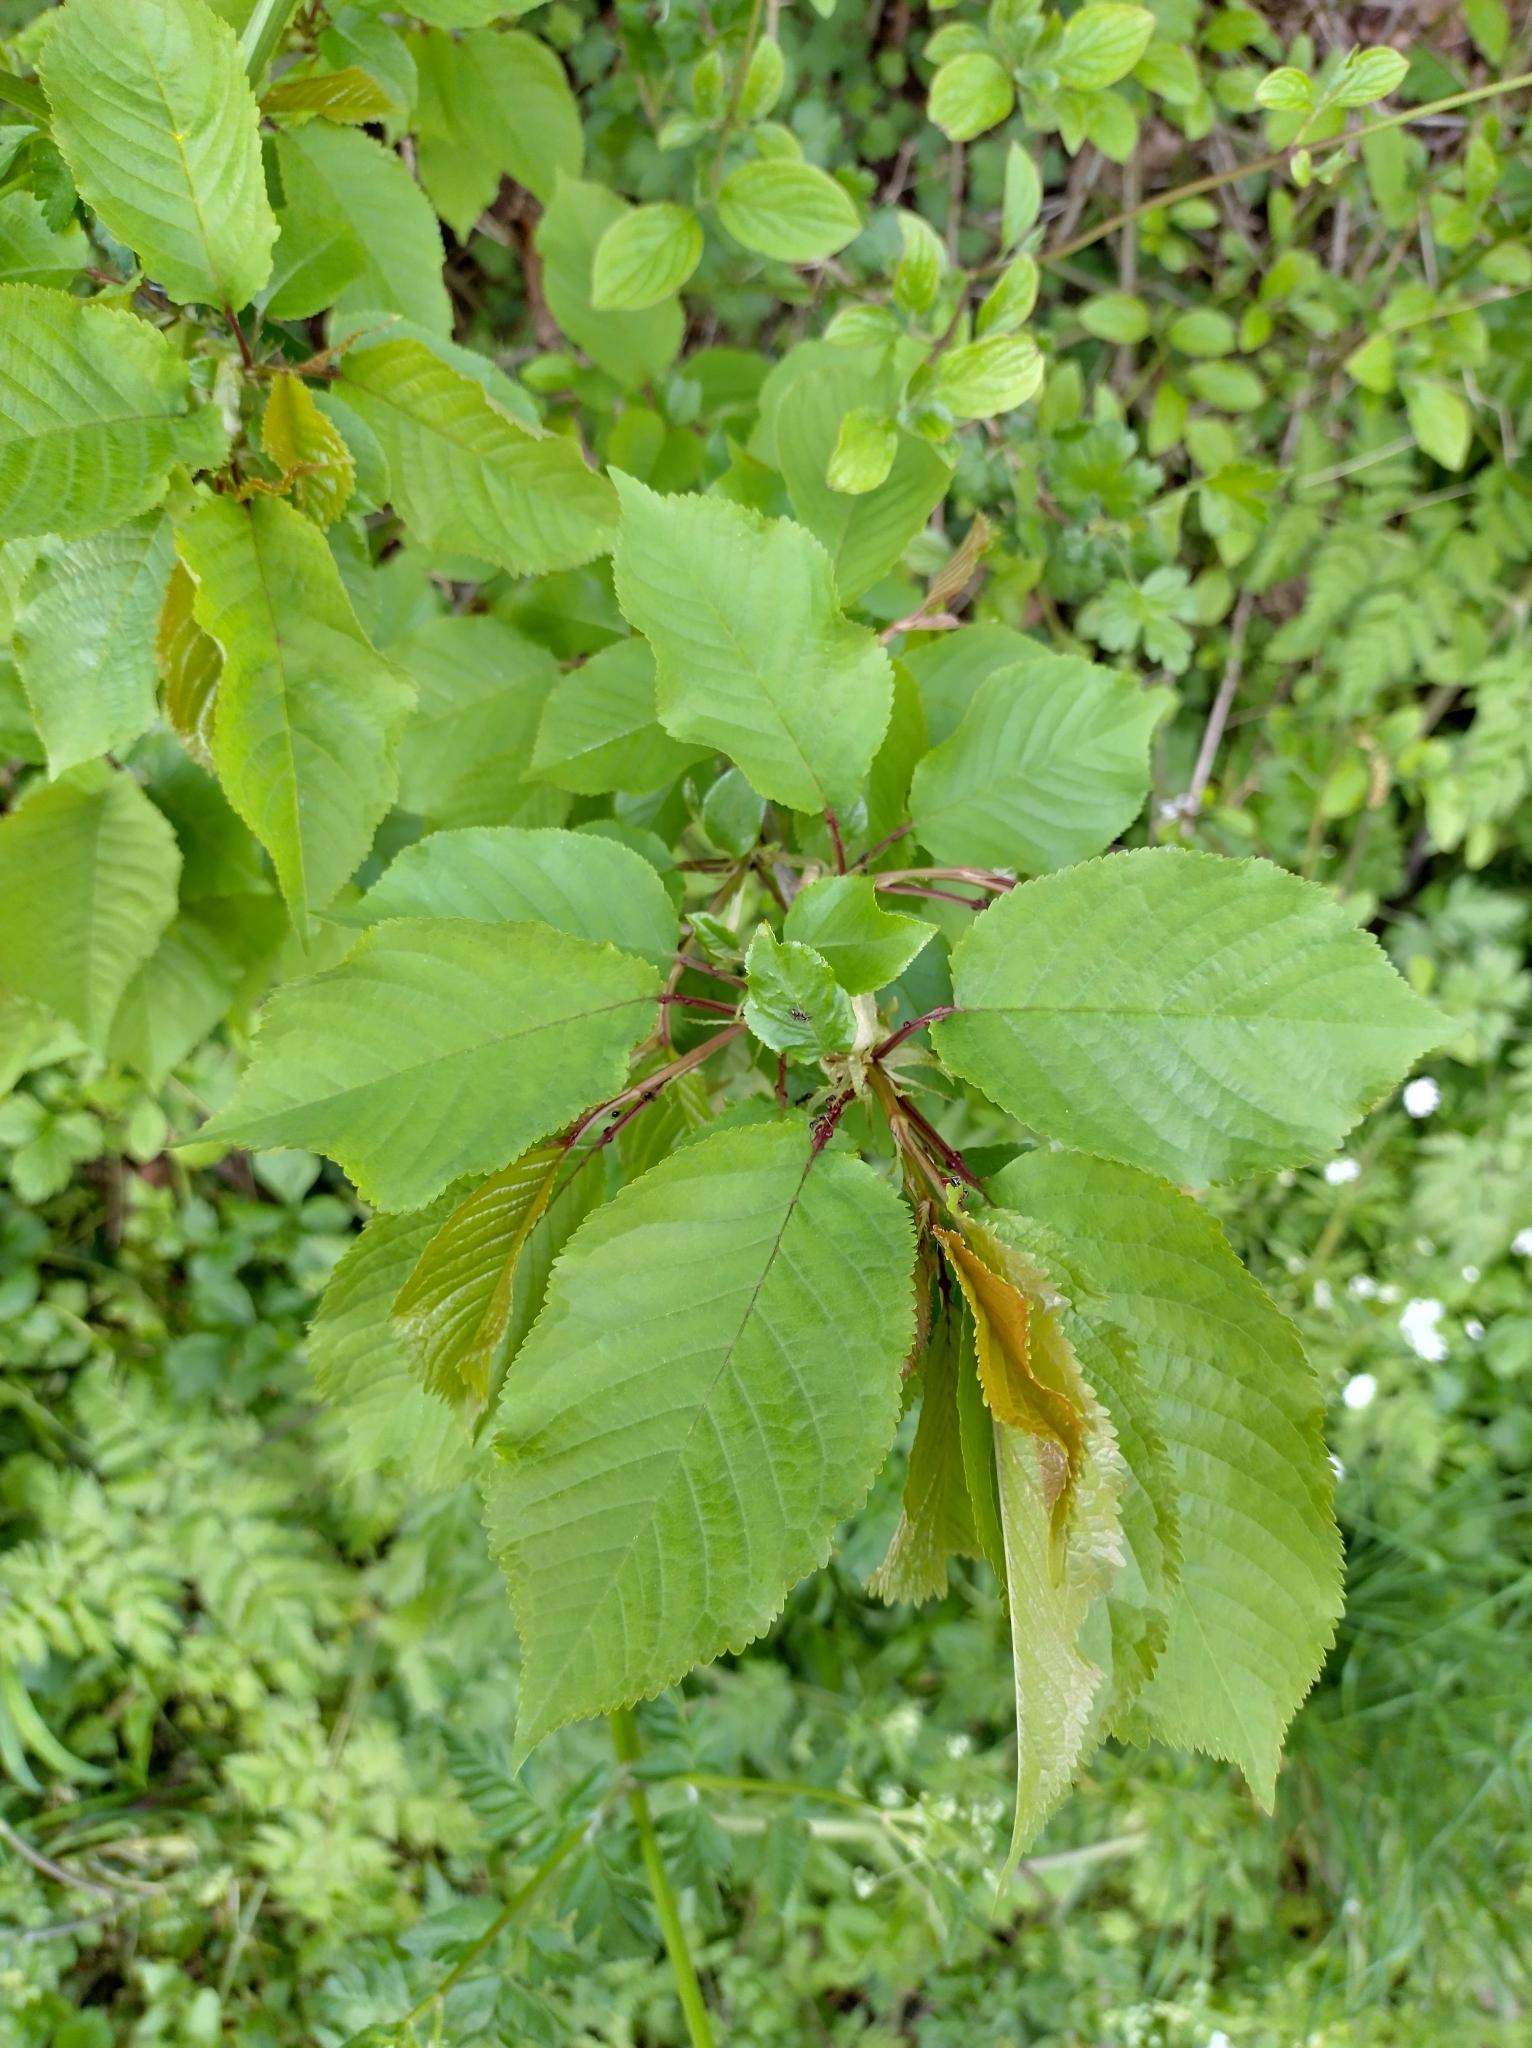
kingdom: Plantae
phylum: Tracheophyta
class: Magnoliopsida
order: Rosales
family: Rosaceae
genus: Prunus
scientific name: Prunus avium
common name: Sweet cherry
